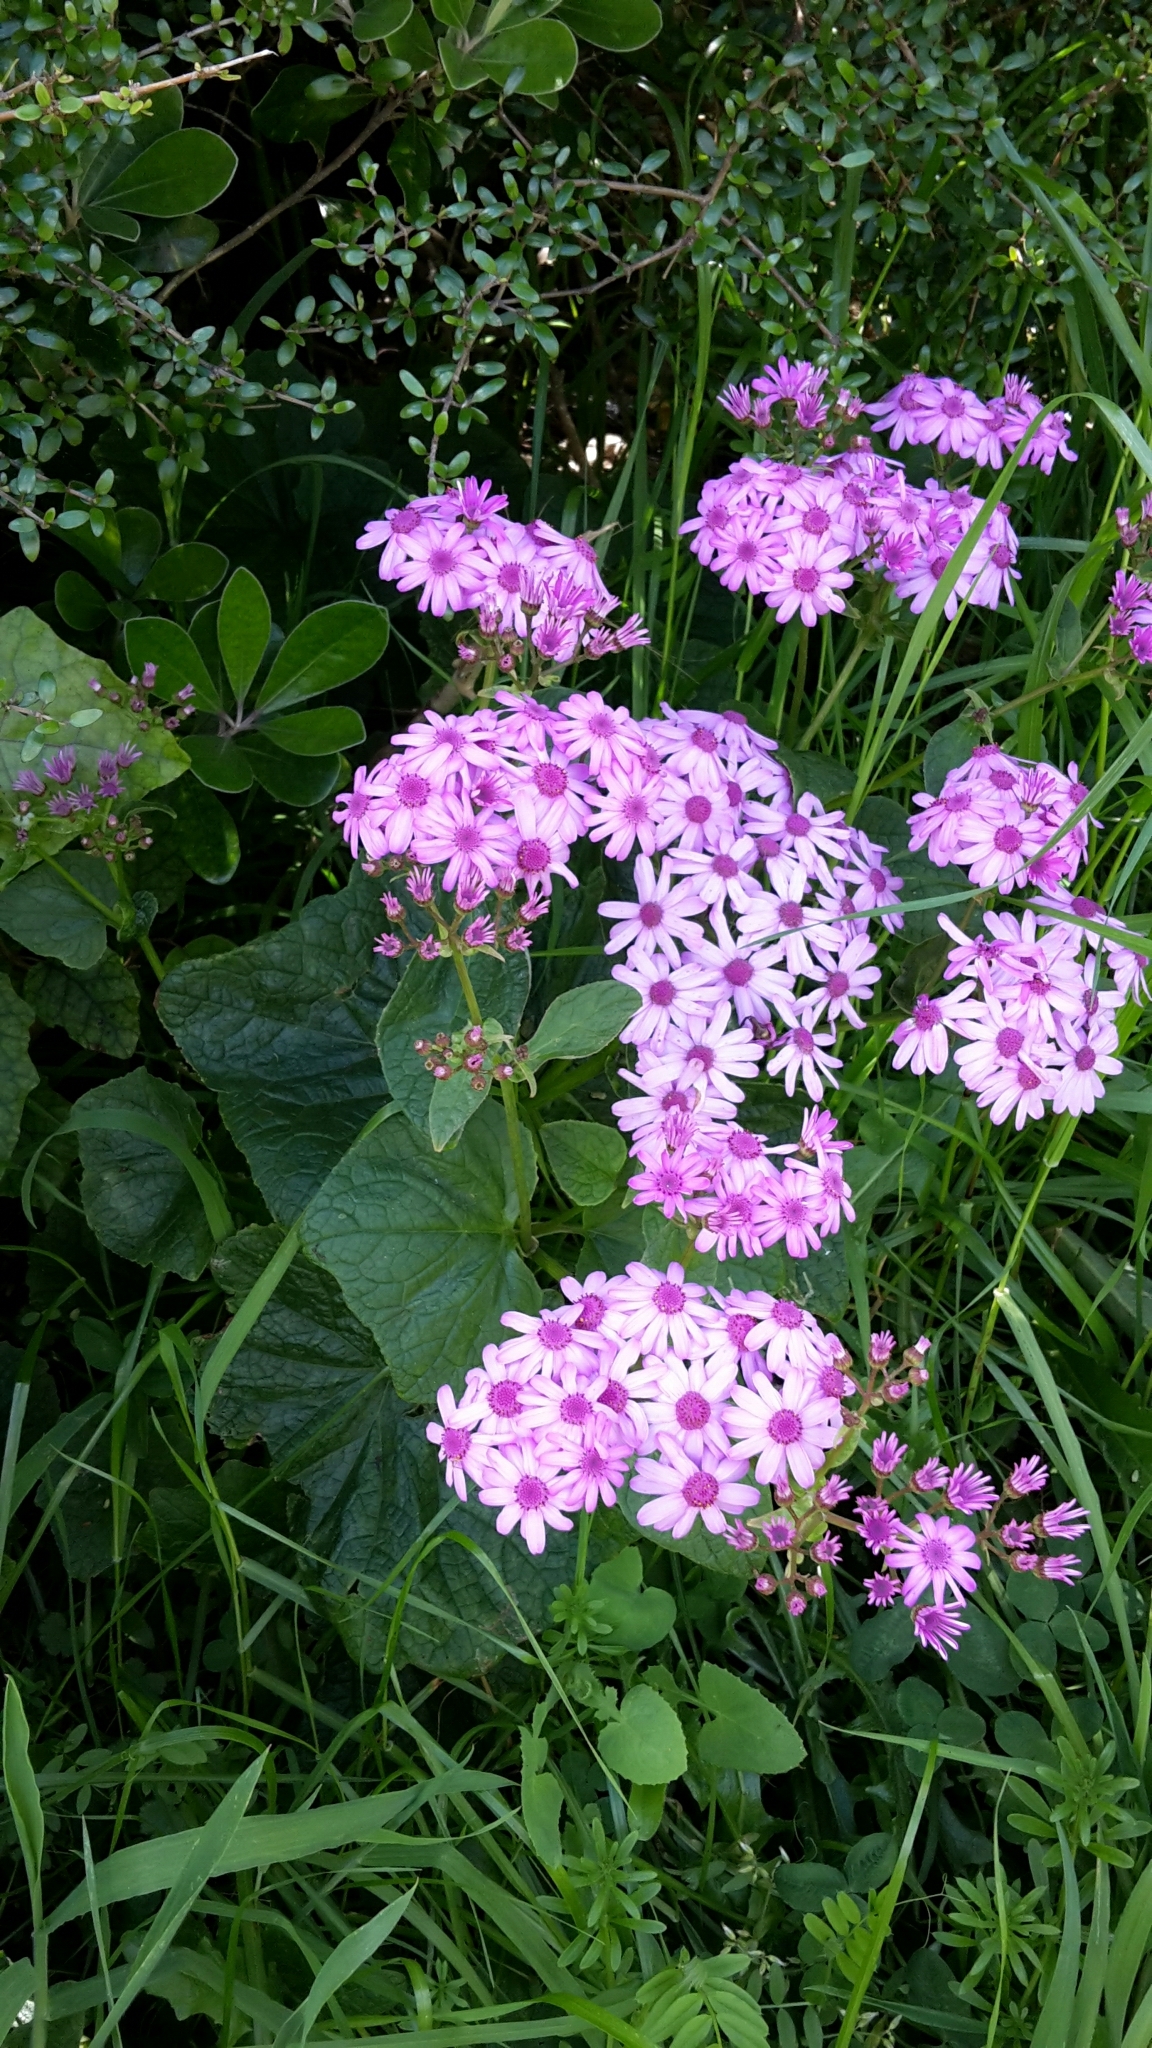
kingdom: Plantae
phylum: Tracheophyta
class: Magnoliopsida
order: Asterales
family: Asteraceae
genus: Pericallis
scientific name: Pericallis hybrida
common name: Cineraria
